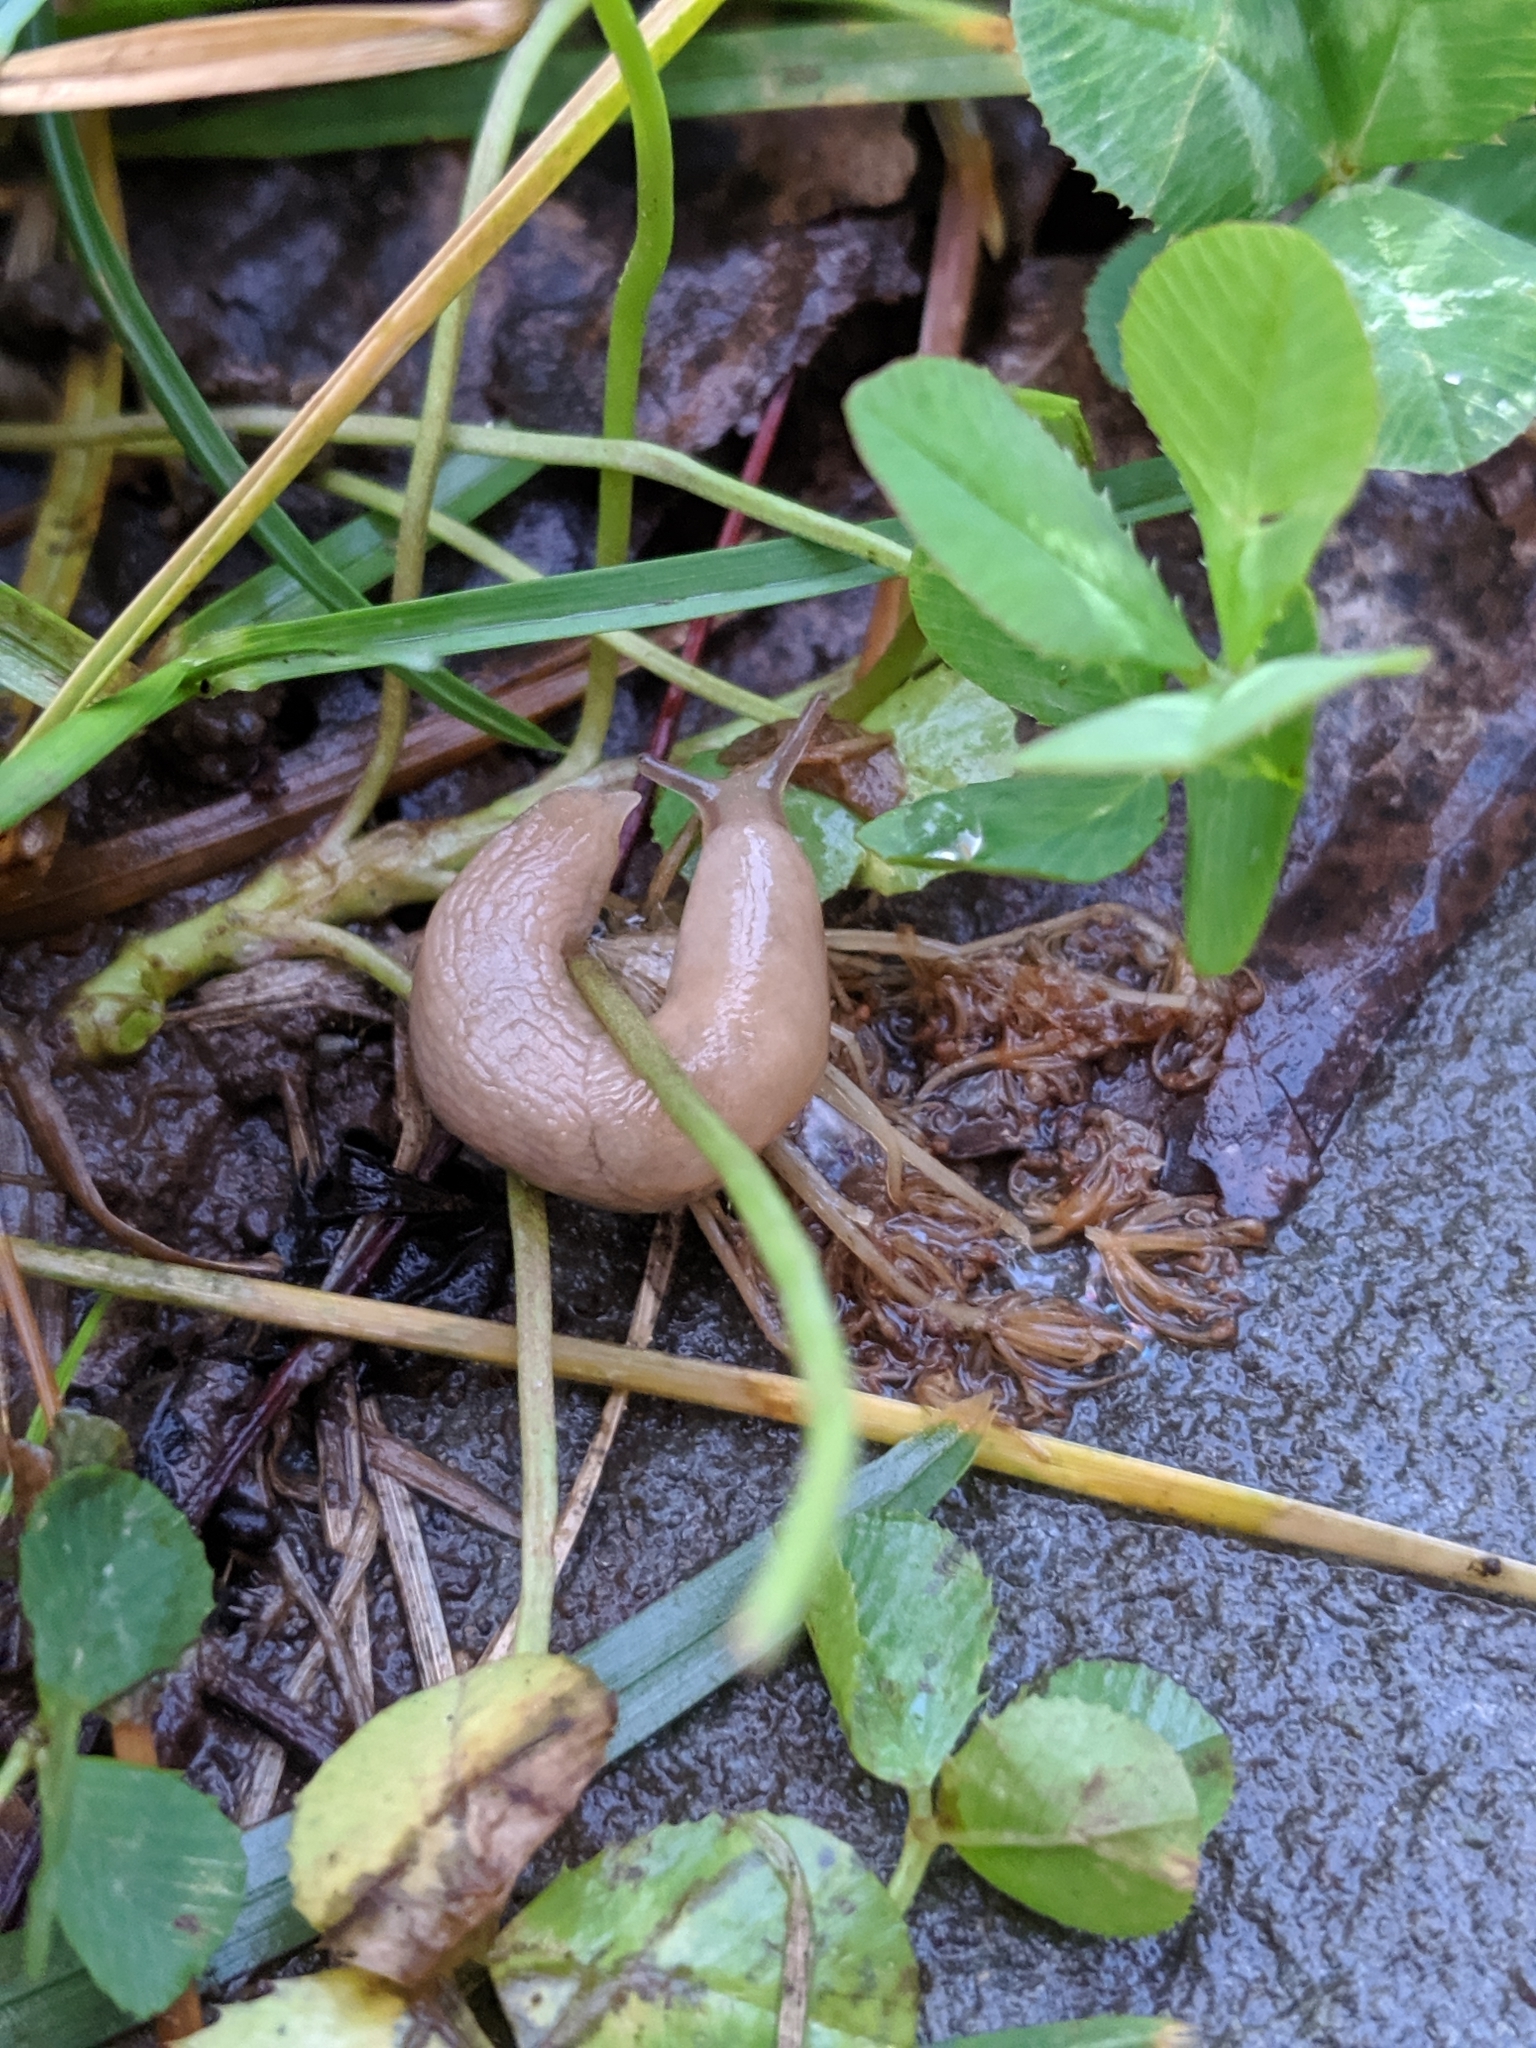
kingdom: Animalia
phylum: Mollusca
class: Gastropoda
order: Stylommatophora
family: Agriolimacidae
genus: Deroceras
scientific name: Deroceras reticulatum
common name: Gray field slug
